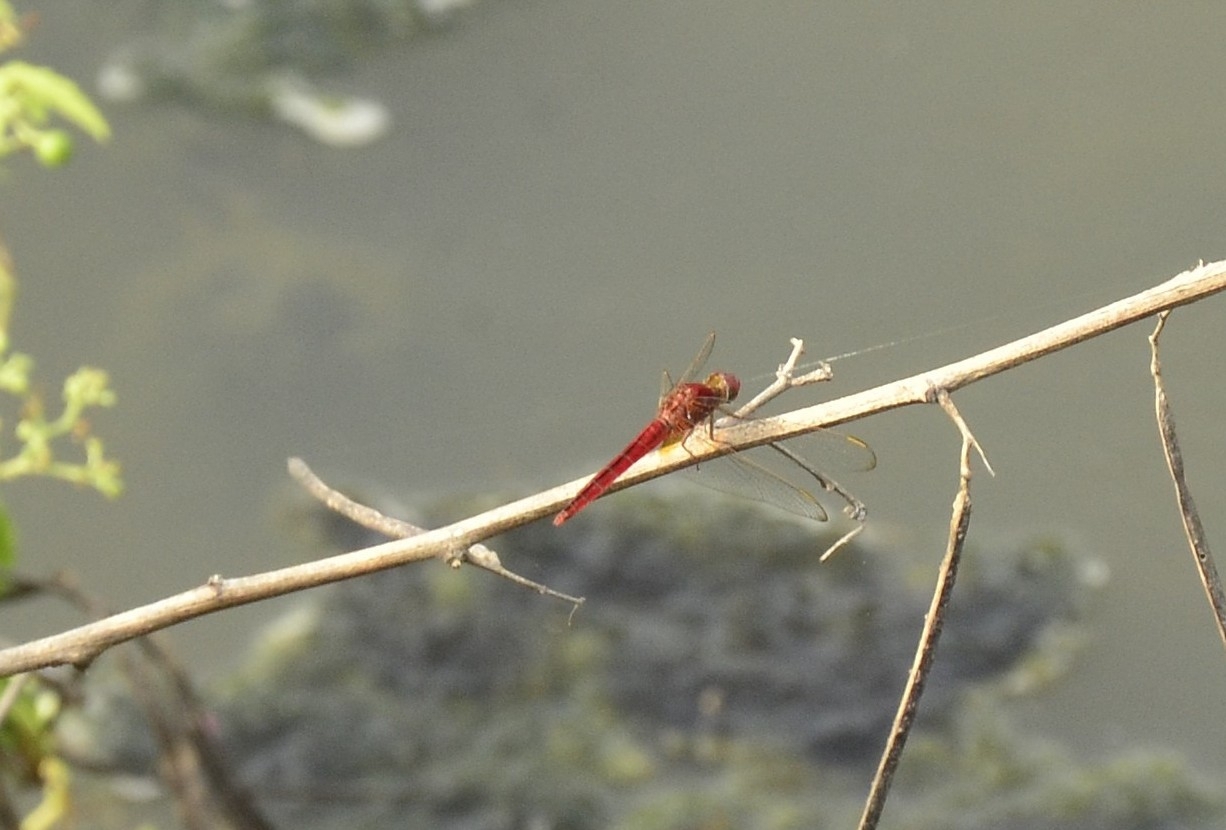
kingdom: Animalia
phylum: Arthropoda
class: Insecta
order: Odonata
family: Libellulidae
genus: Crocothemis
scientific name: Crocothemis servilia
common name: Scarlet skimmer
